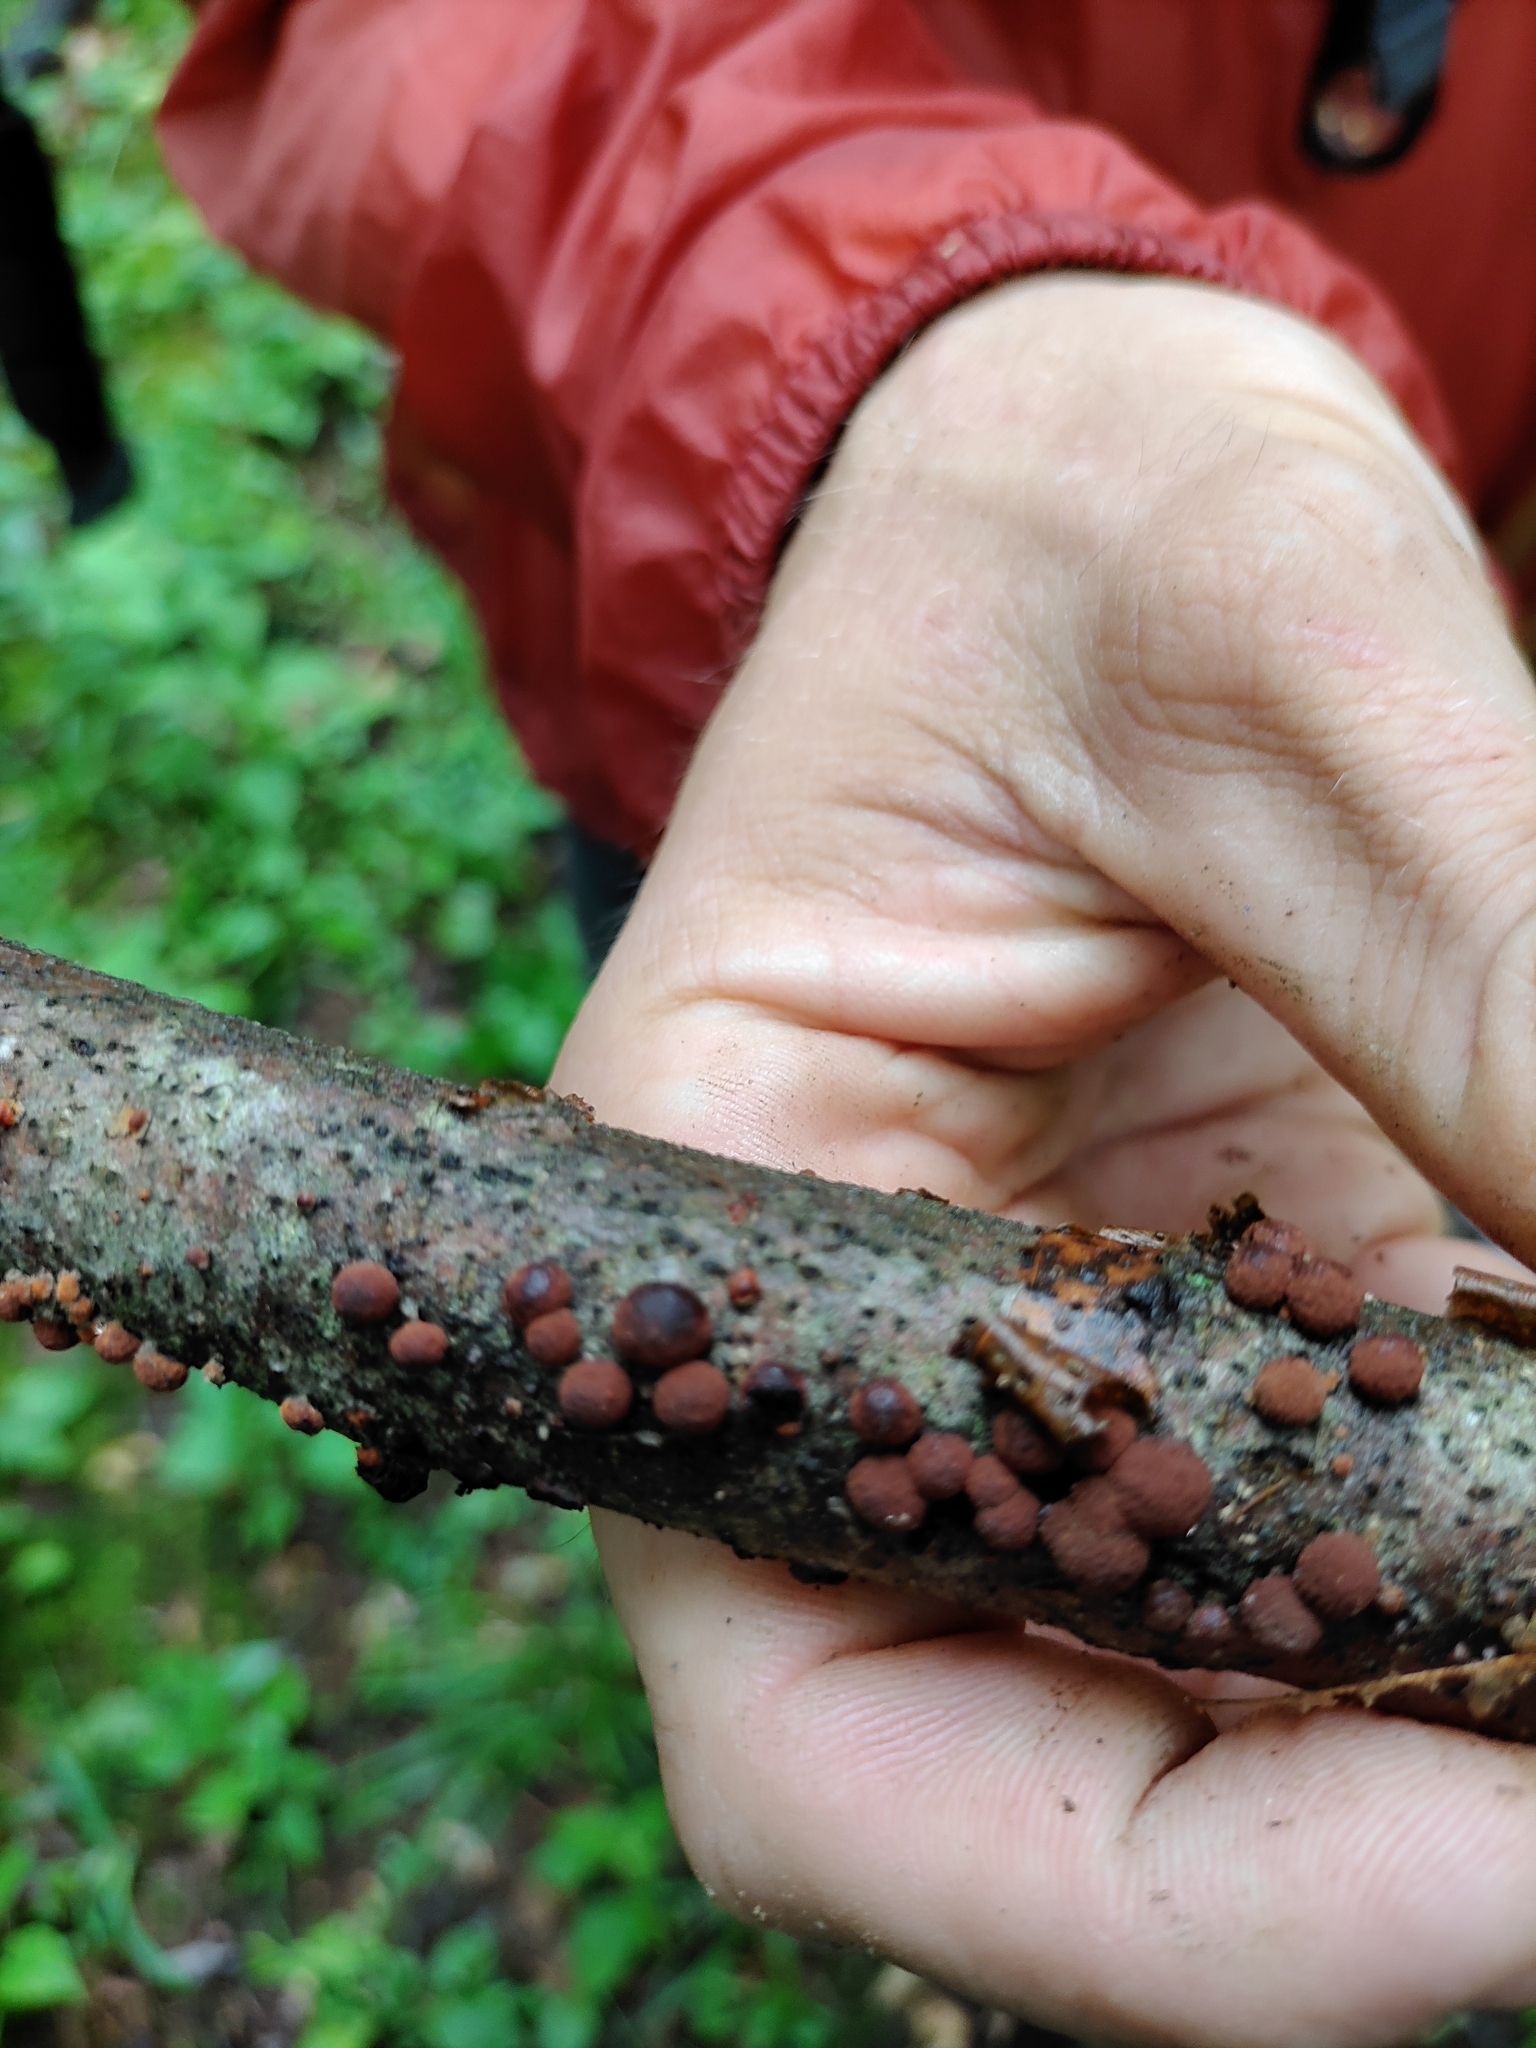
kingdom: Fungi
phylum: Ascomycota
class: Sordariomycetes
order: Xylariales
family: Hypoxylaceae
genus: Hypoxylon
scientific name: Hypoxylon howeanum
